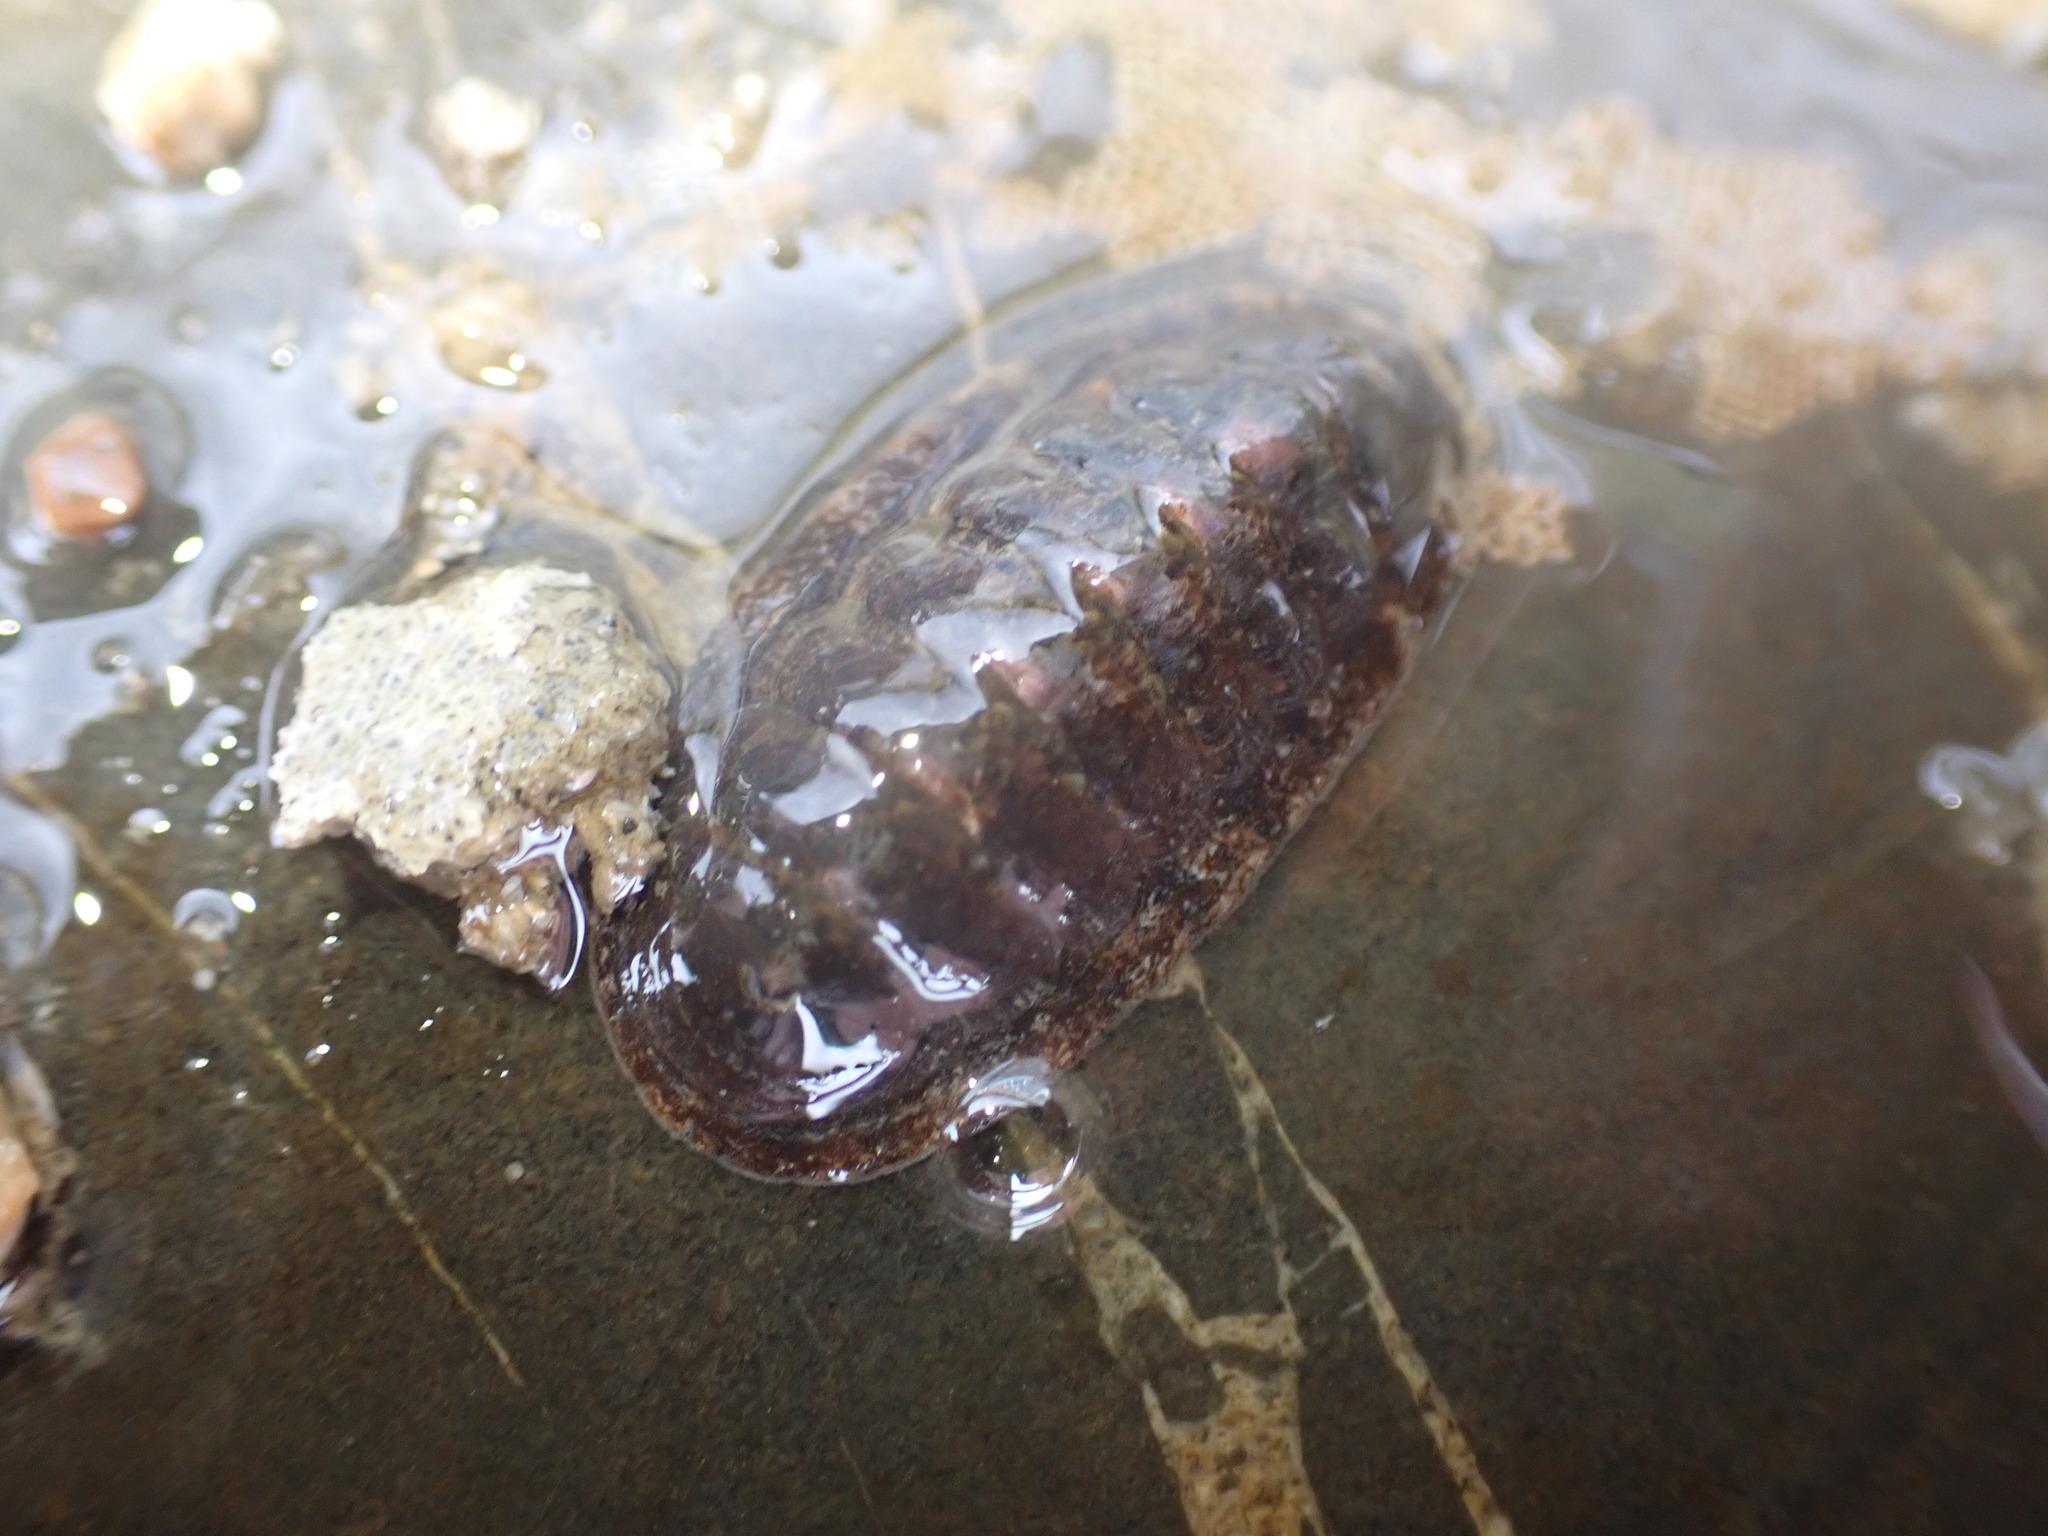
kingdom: Animalia
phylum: Mollusca
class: Polyplacophora
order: Chitonida
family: Ischnochitonidae
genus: Ischnochiton
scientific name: Ischnochiton maorianus
